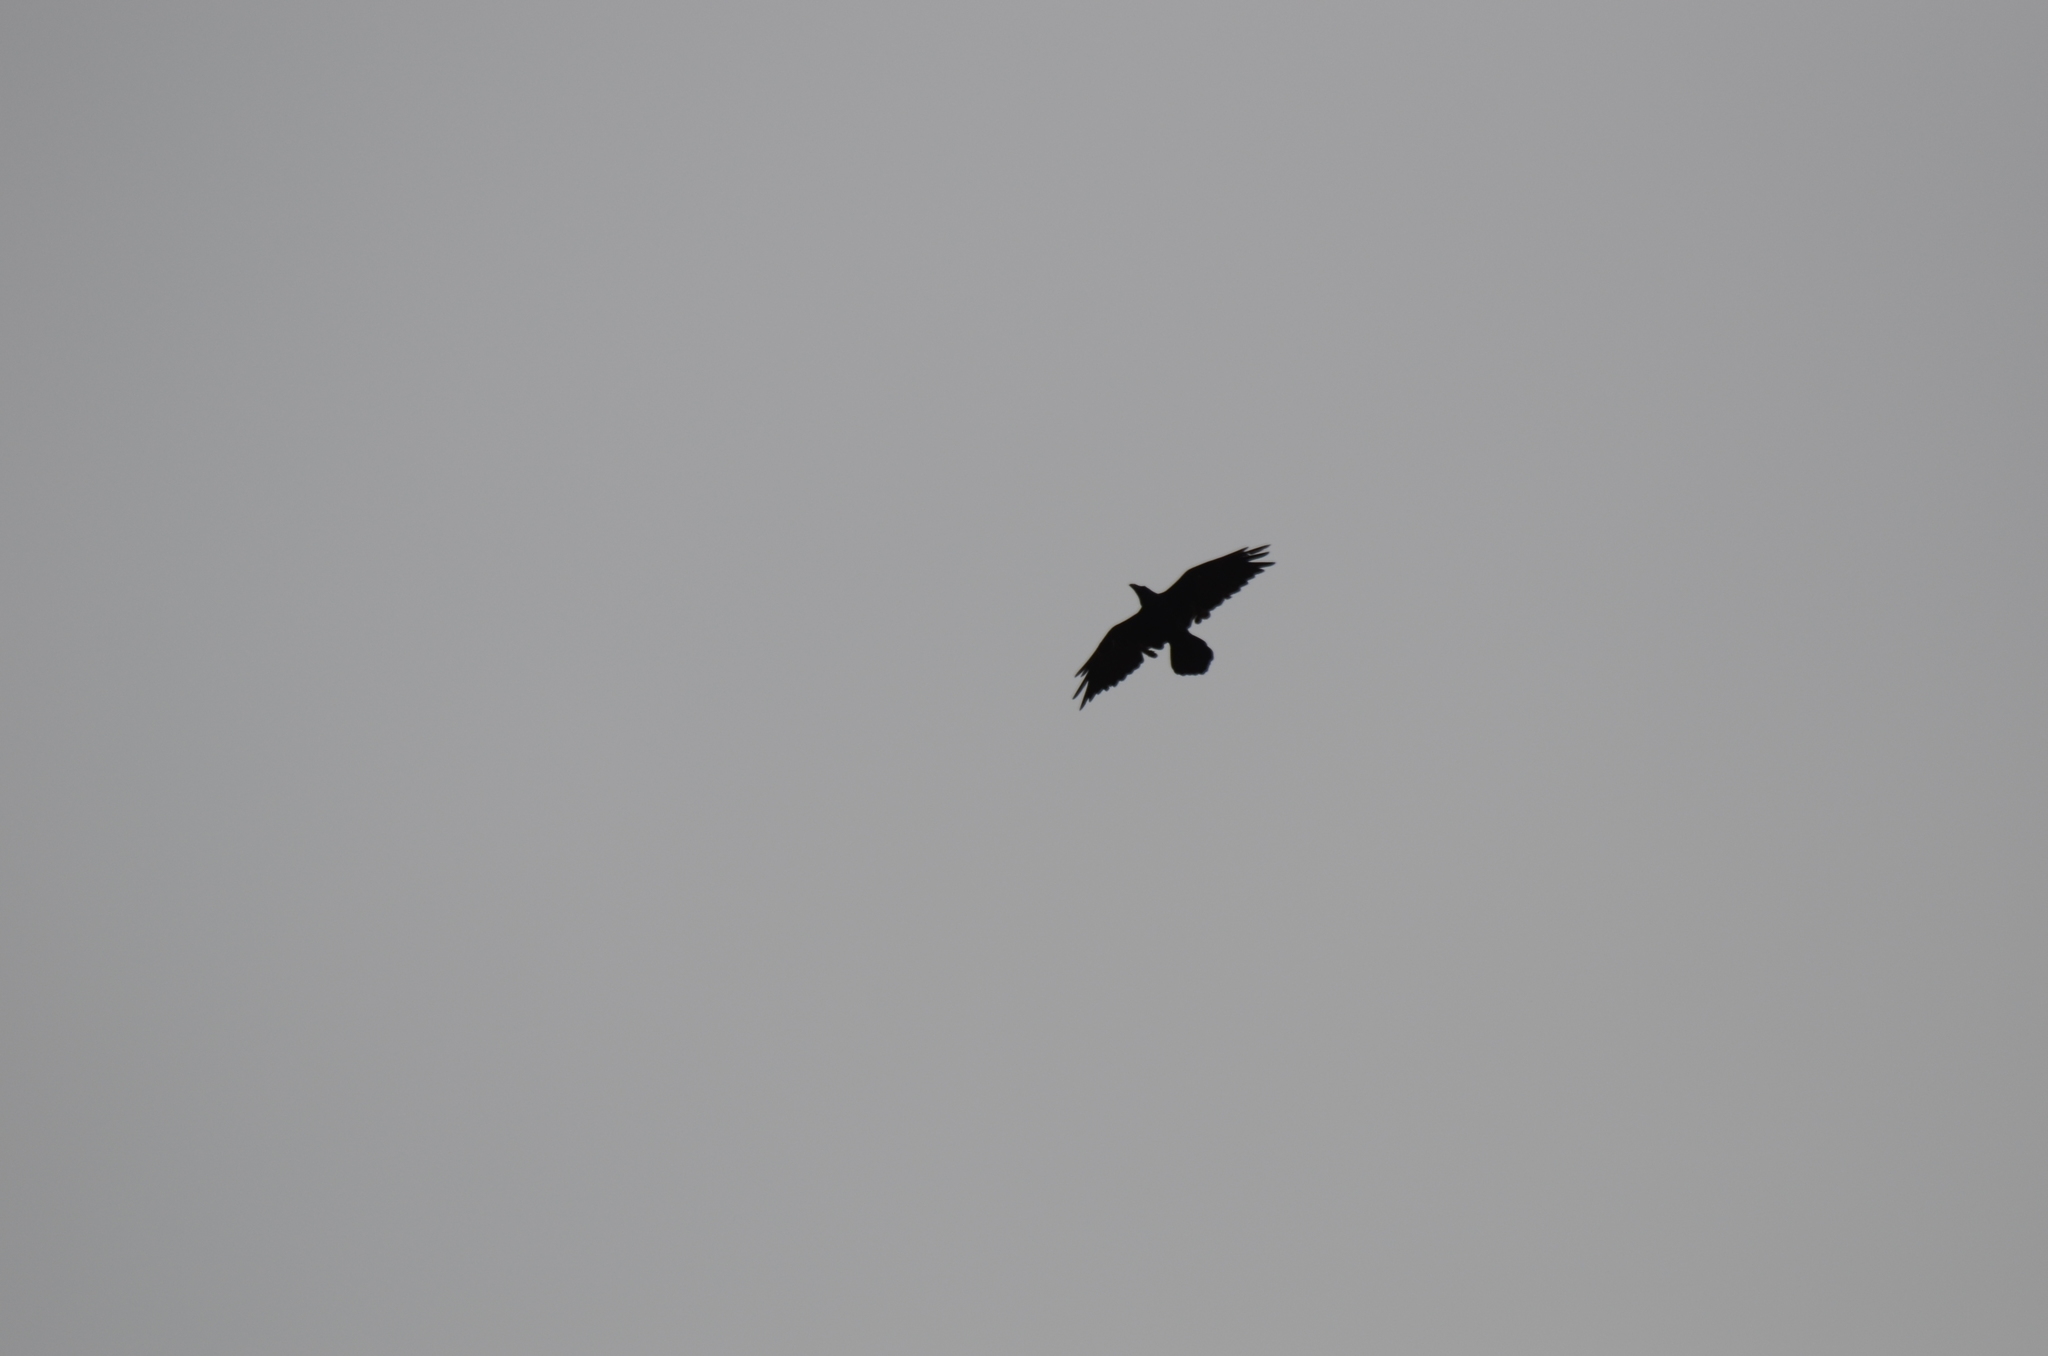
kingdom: Animalia
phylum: Chordata
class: Aves
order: Passeriformes
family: Corvidae
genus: Corvus
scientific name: Corvus corax
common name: Common raven
